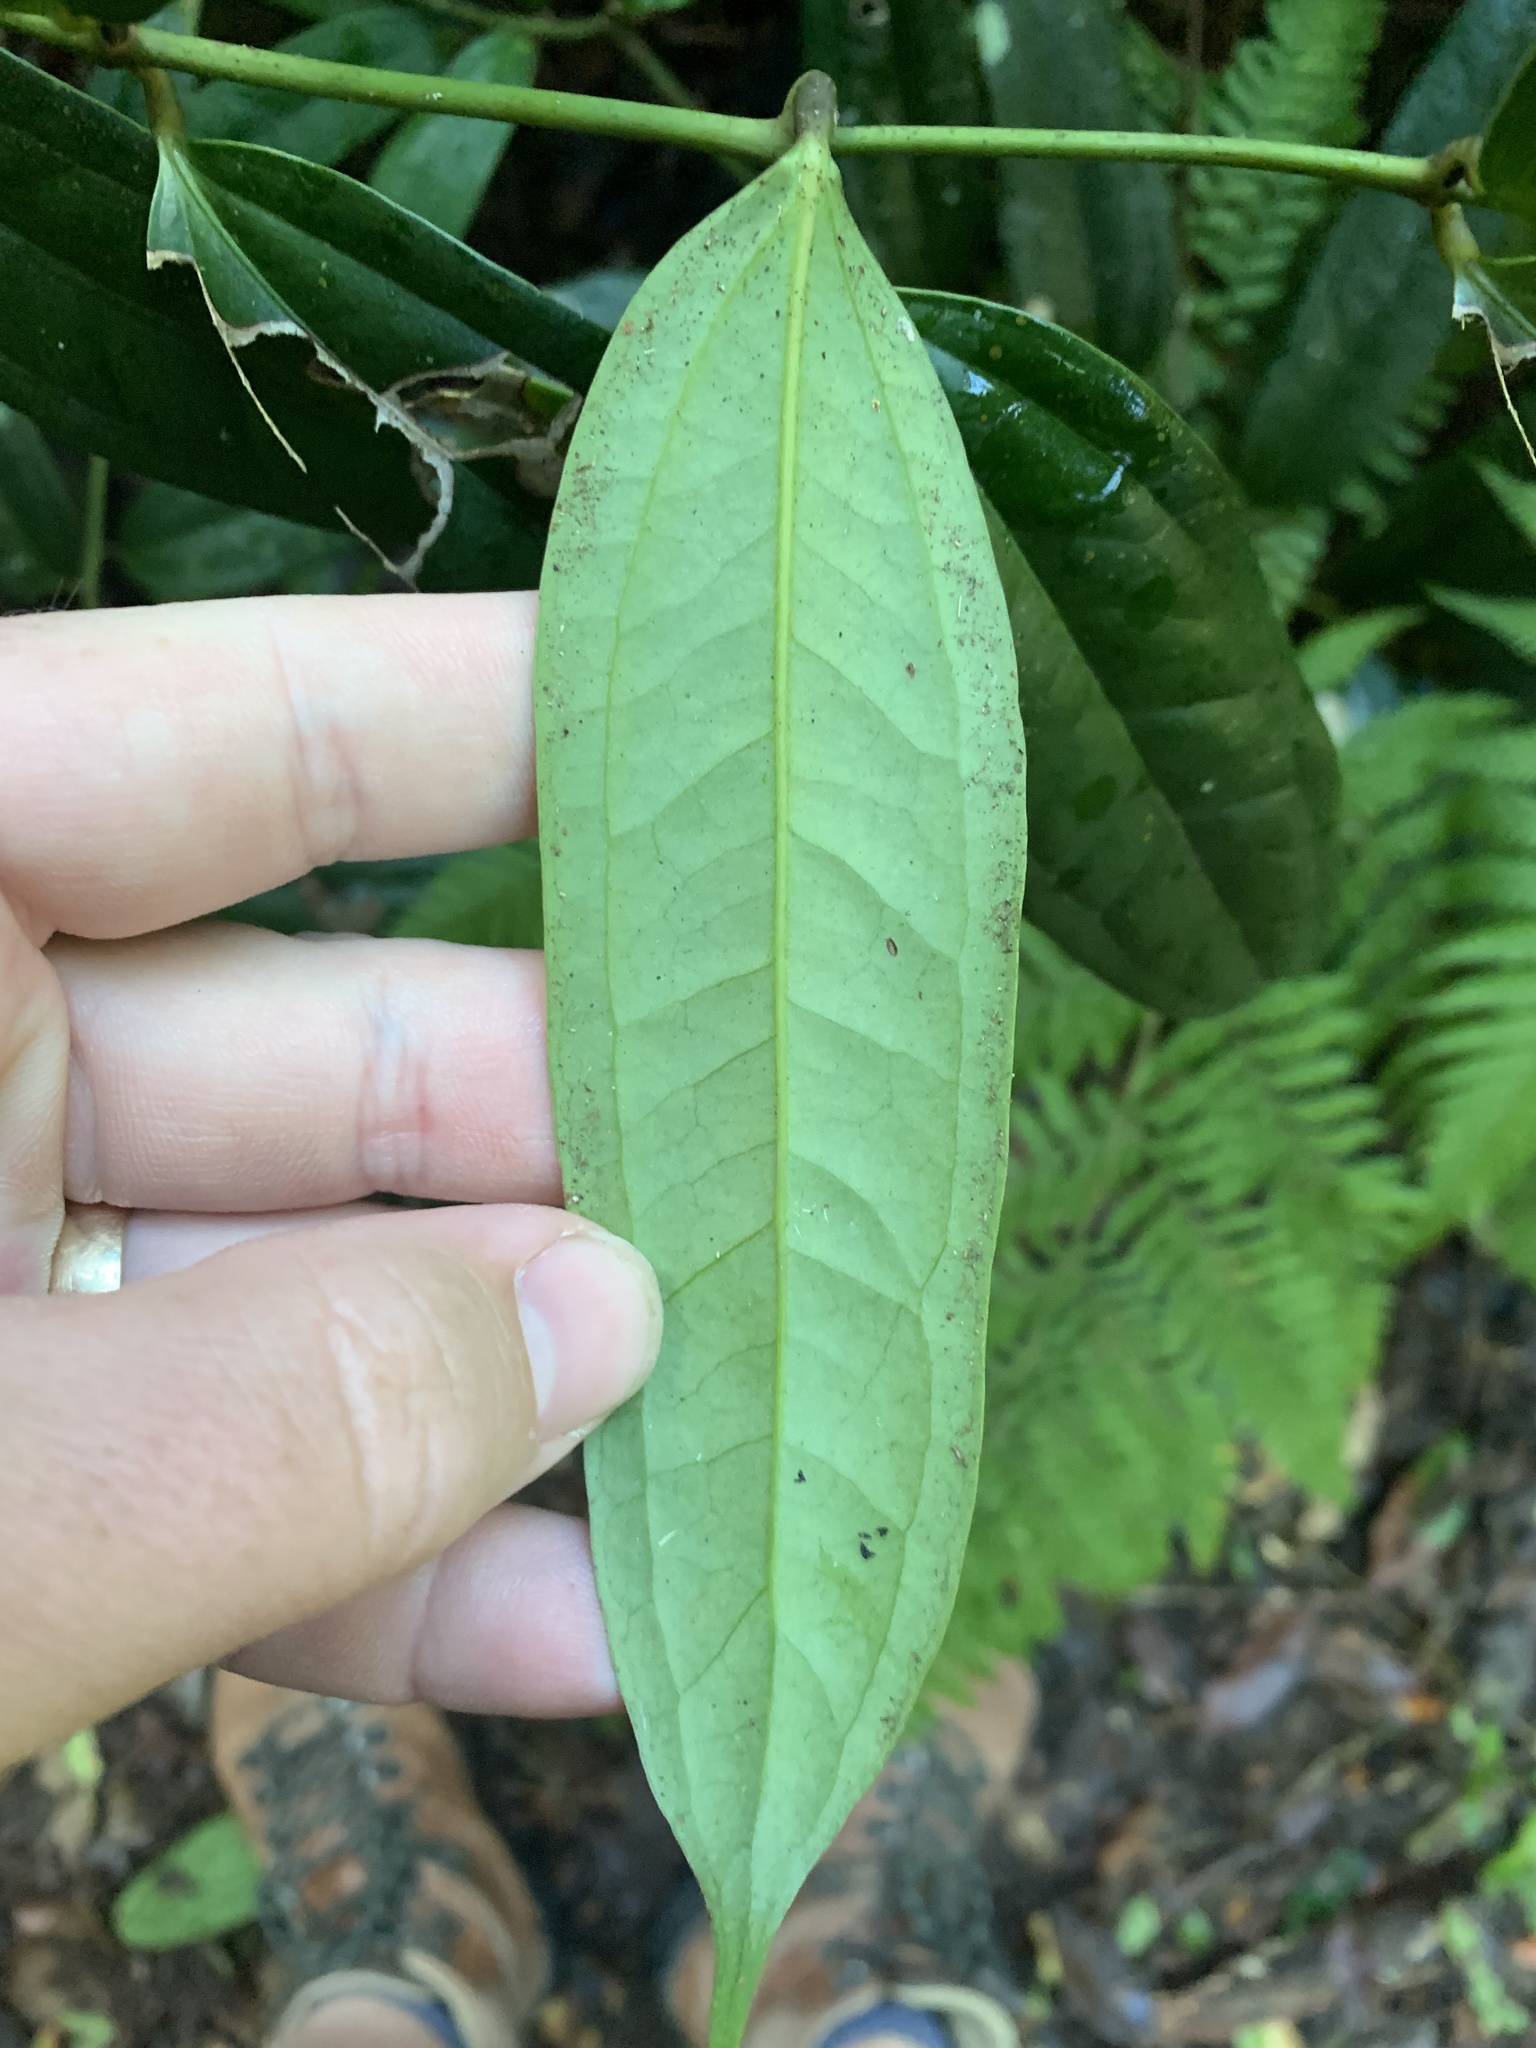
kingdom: Plantae
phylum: Tracheophyta
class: Liliopsida
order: Liliales
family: Ripogonaceae
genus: Ripogonum
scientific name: Ripogonum discolor
